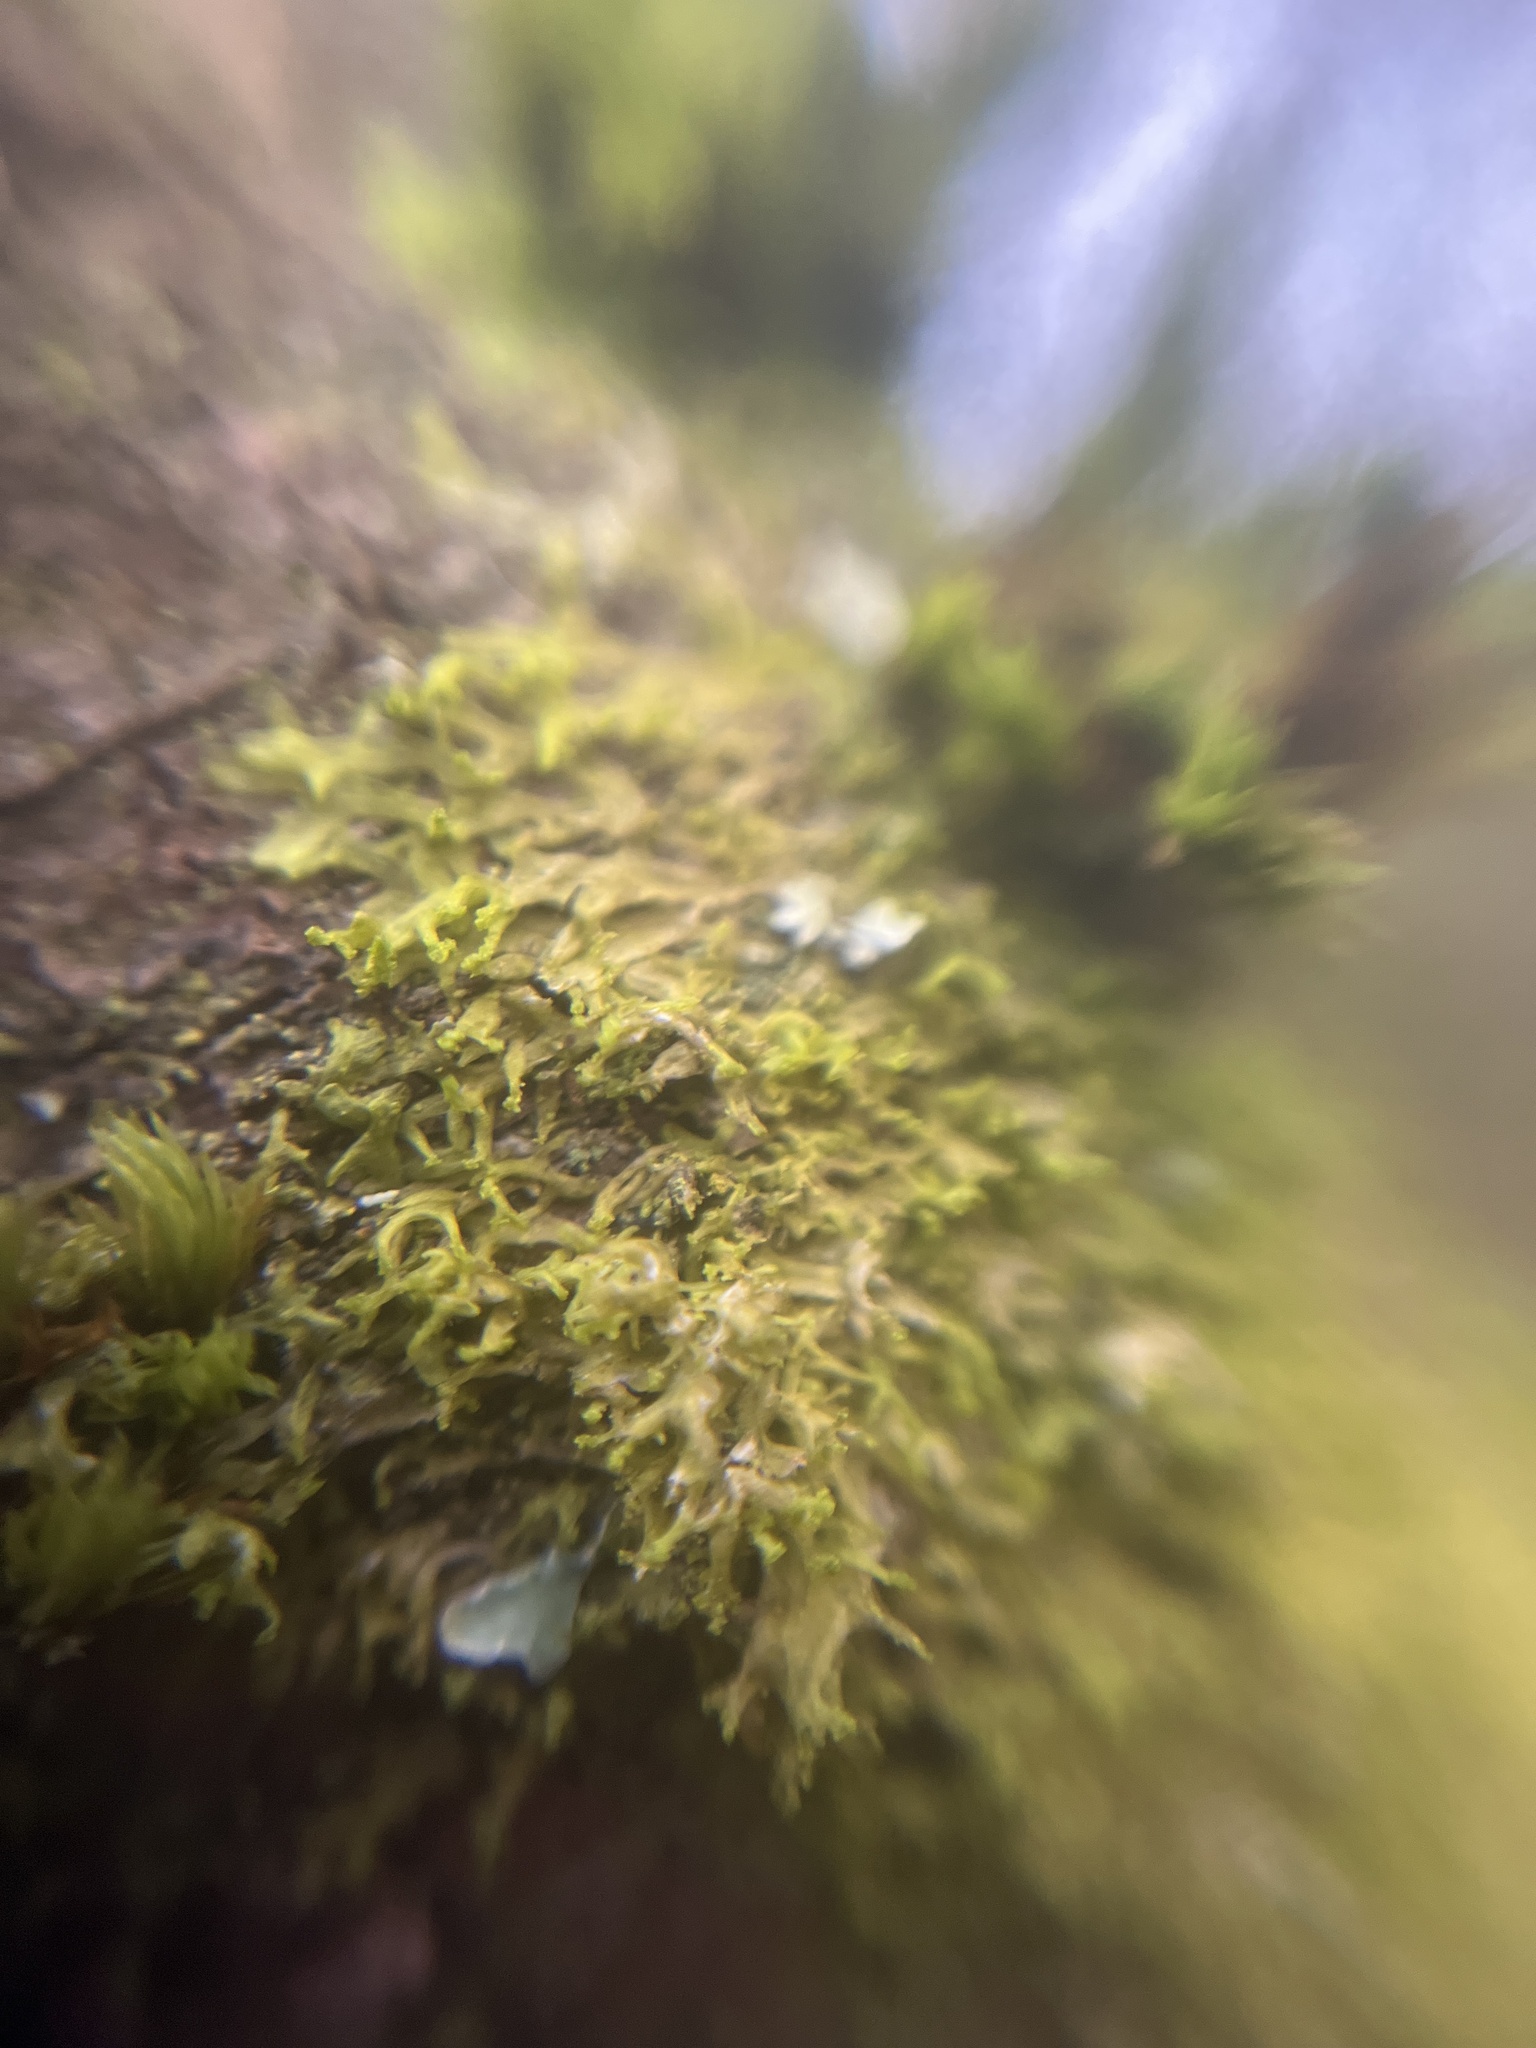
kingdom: Plantae
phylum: Marchantiophyta
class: Jungermanniopsida
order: Metzgeriales
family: Metzgeriaceae
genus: Metzgeria
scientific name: Metzgeria violacea
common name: Blueish veilwort
